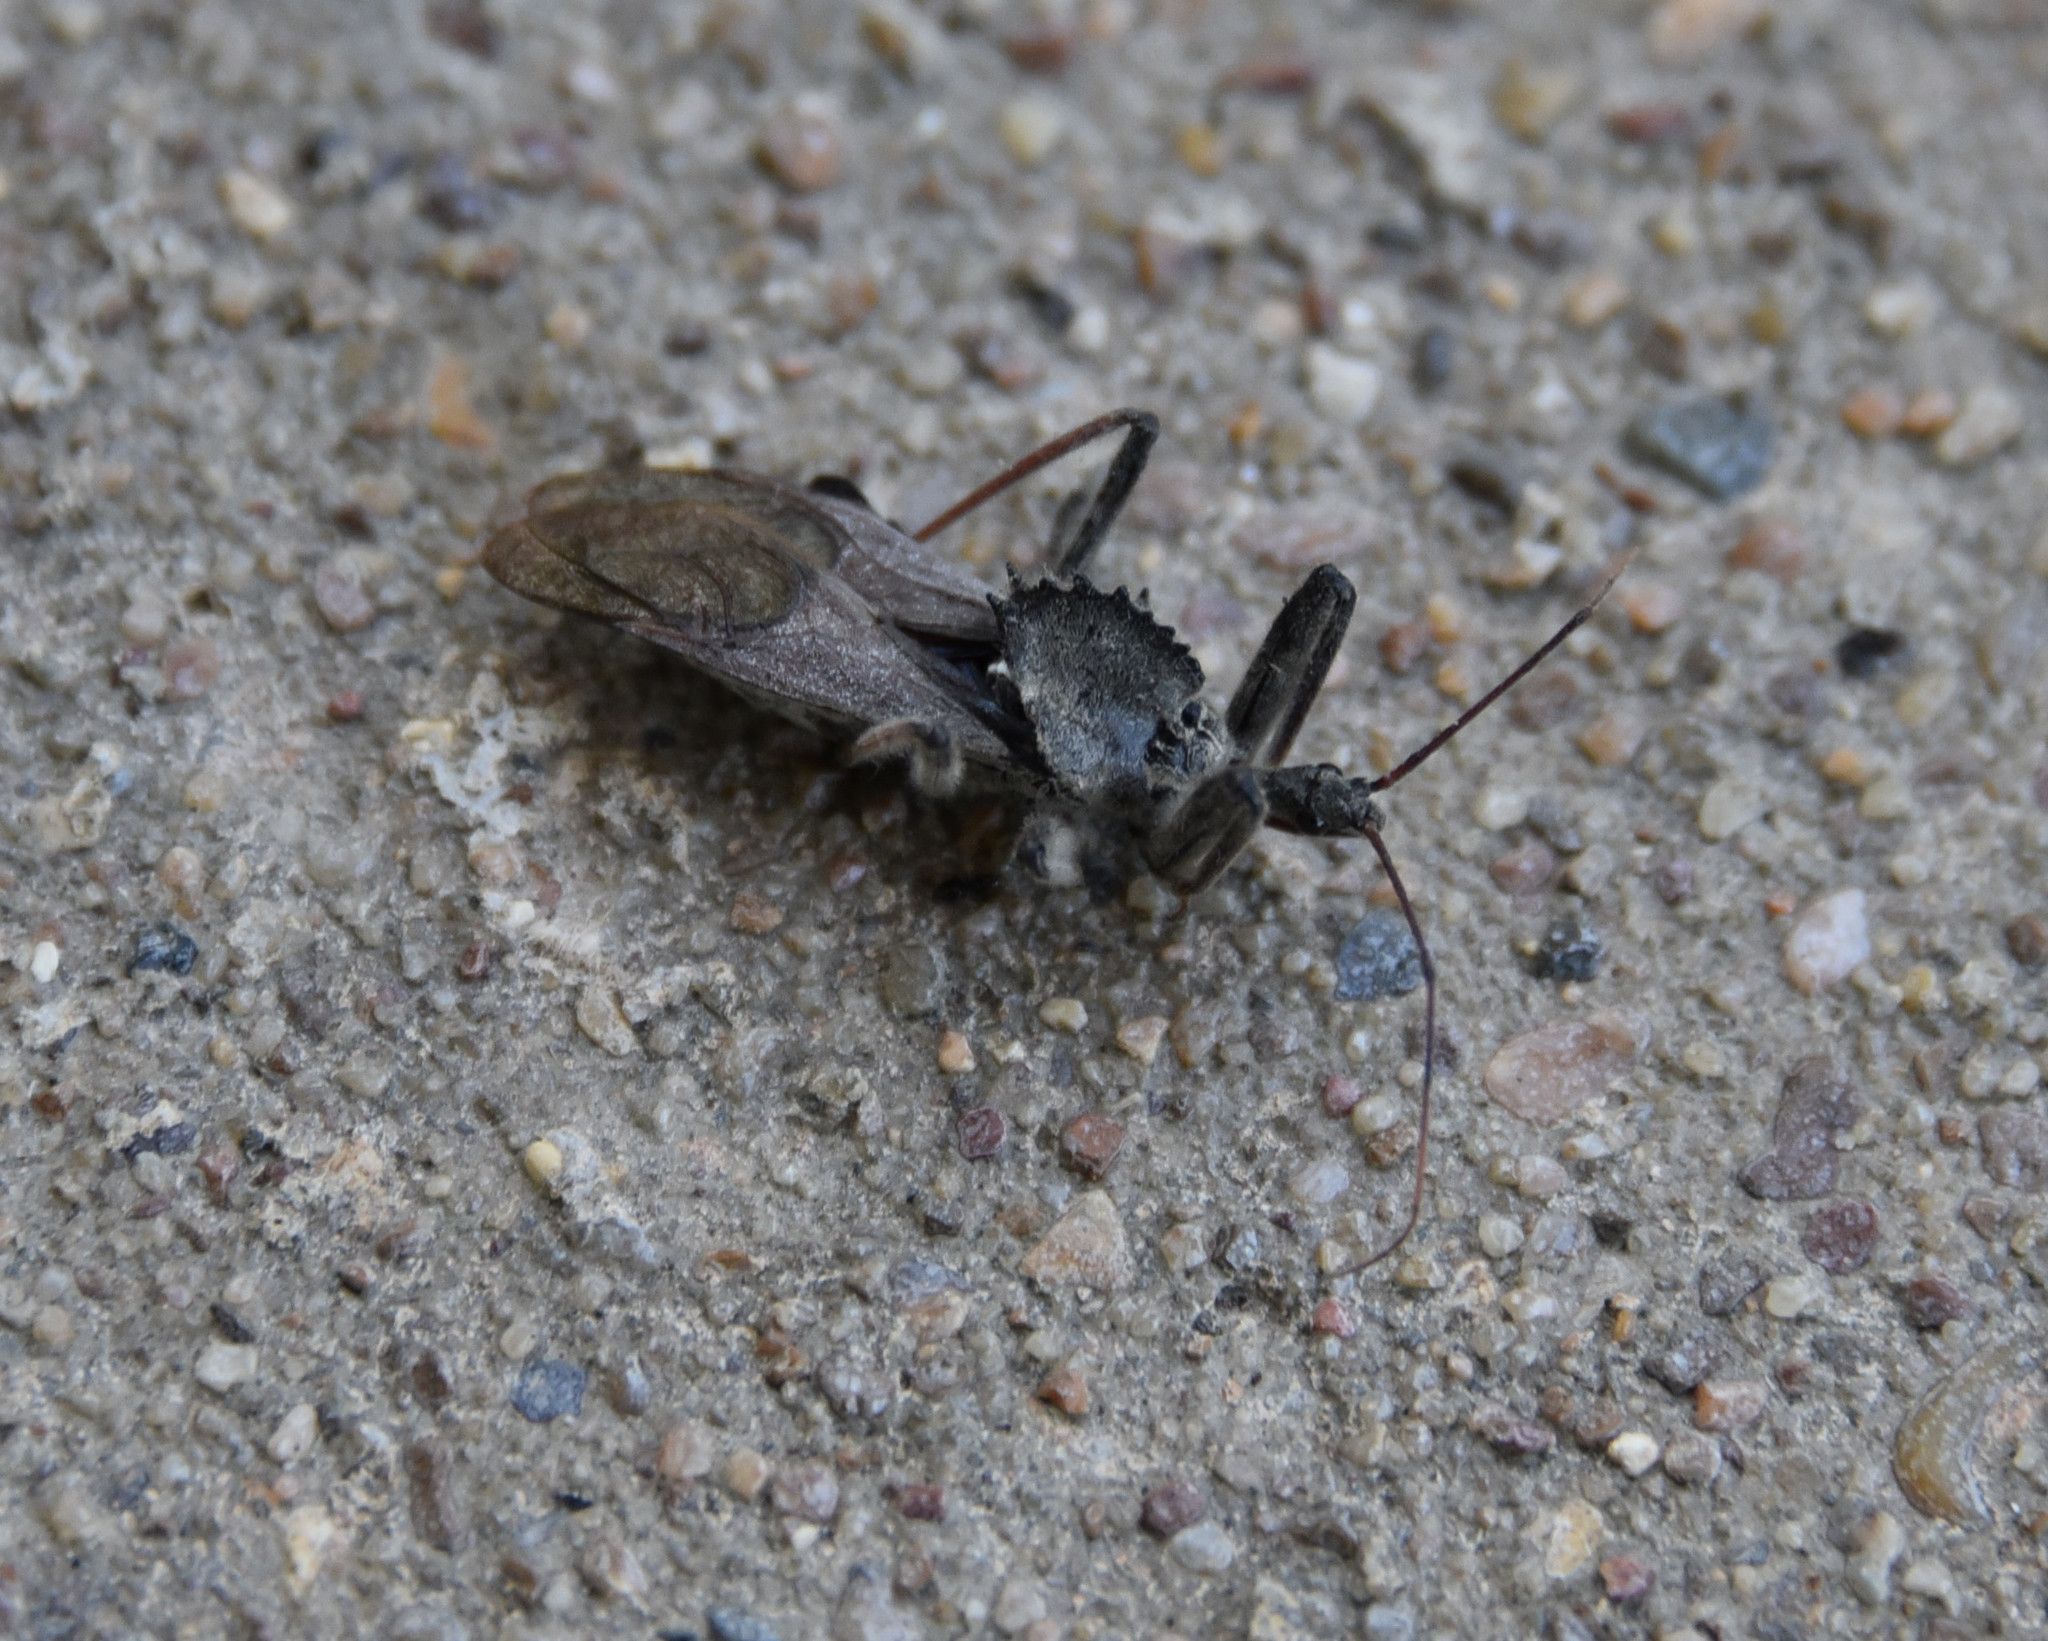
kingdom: Animalia
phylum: Arthropoda
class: Insecta
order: Hemiptera
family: Reduviidae
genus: Arilus
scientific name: Arilus cristatus
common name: North american wheel bug
